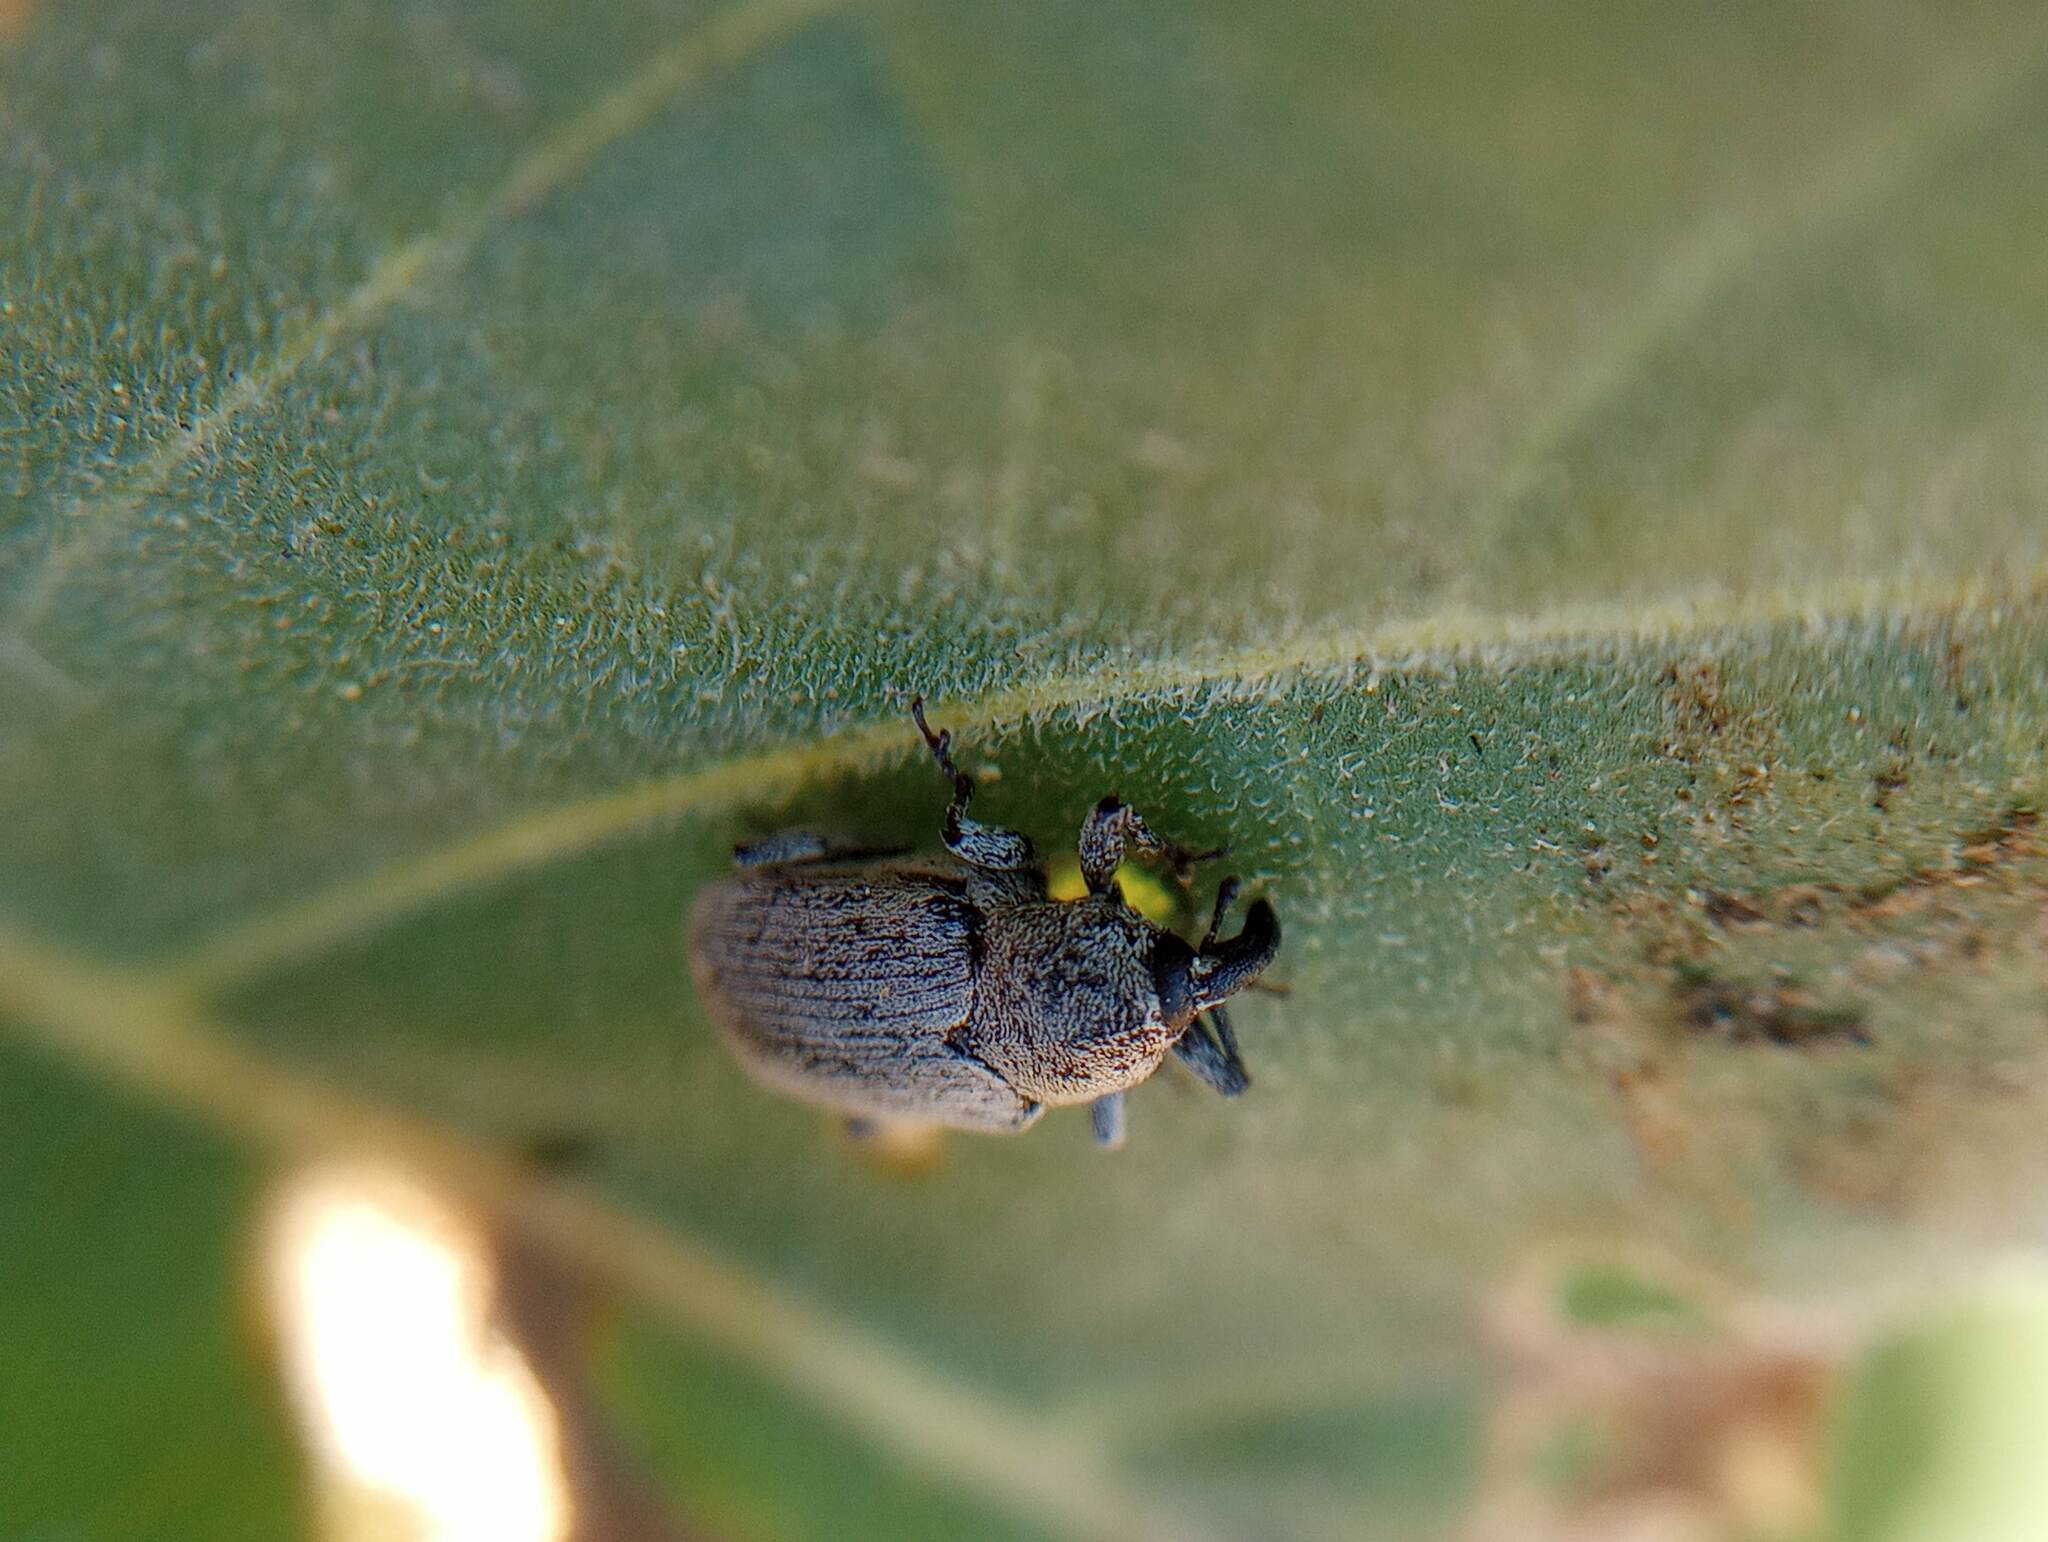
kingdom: Animalia
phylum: Arthropoda
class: Insecta
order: Coleoptera
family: Curculionidae
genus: Trichobaris
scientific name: Trichobaris compacta
